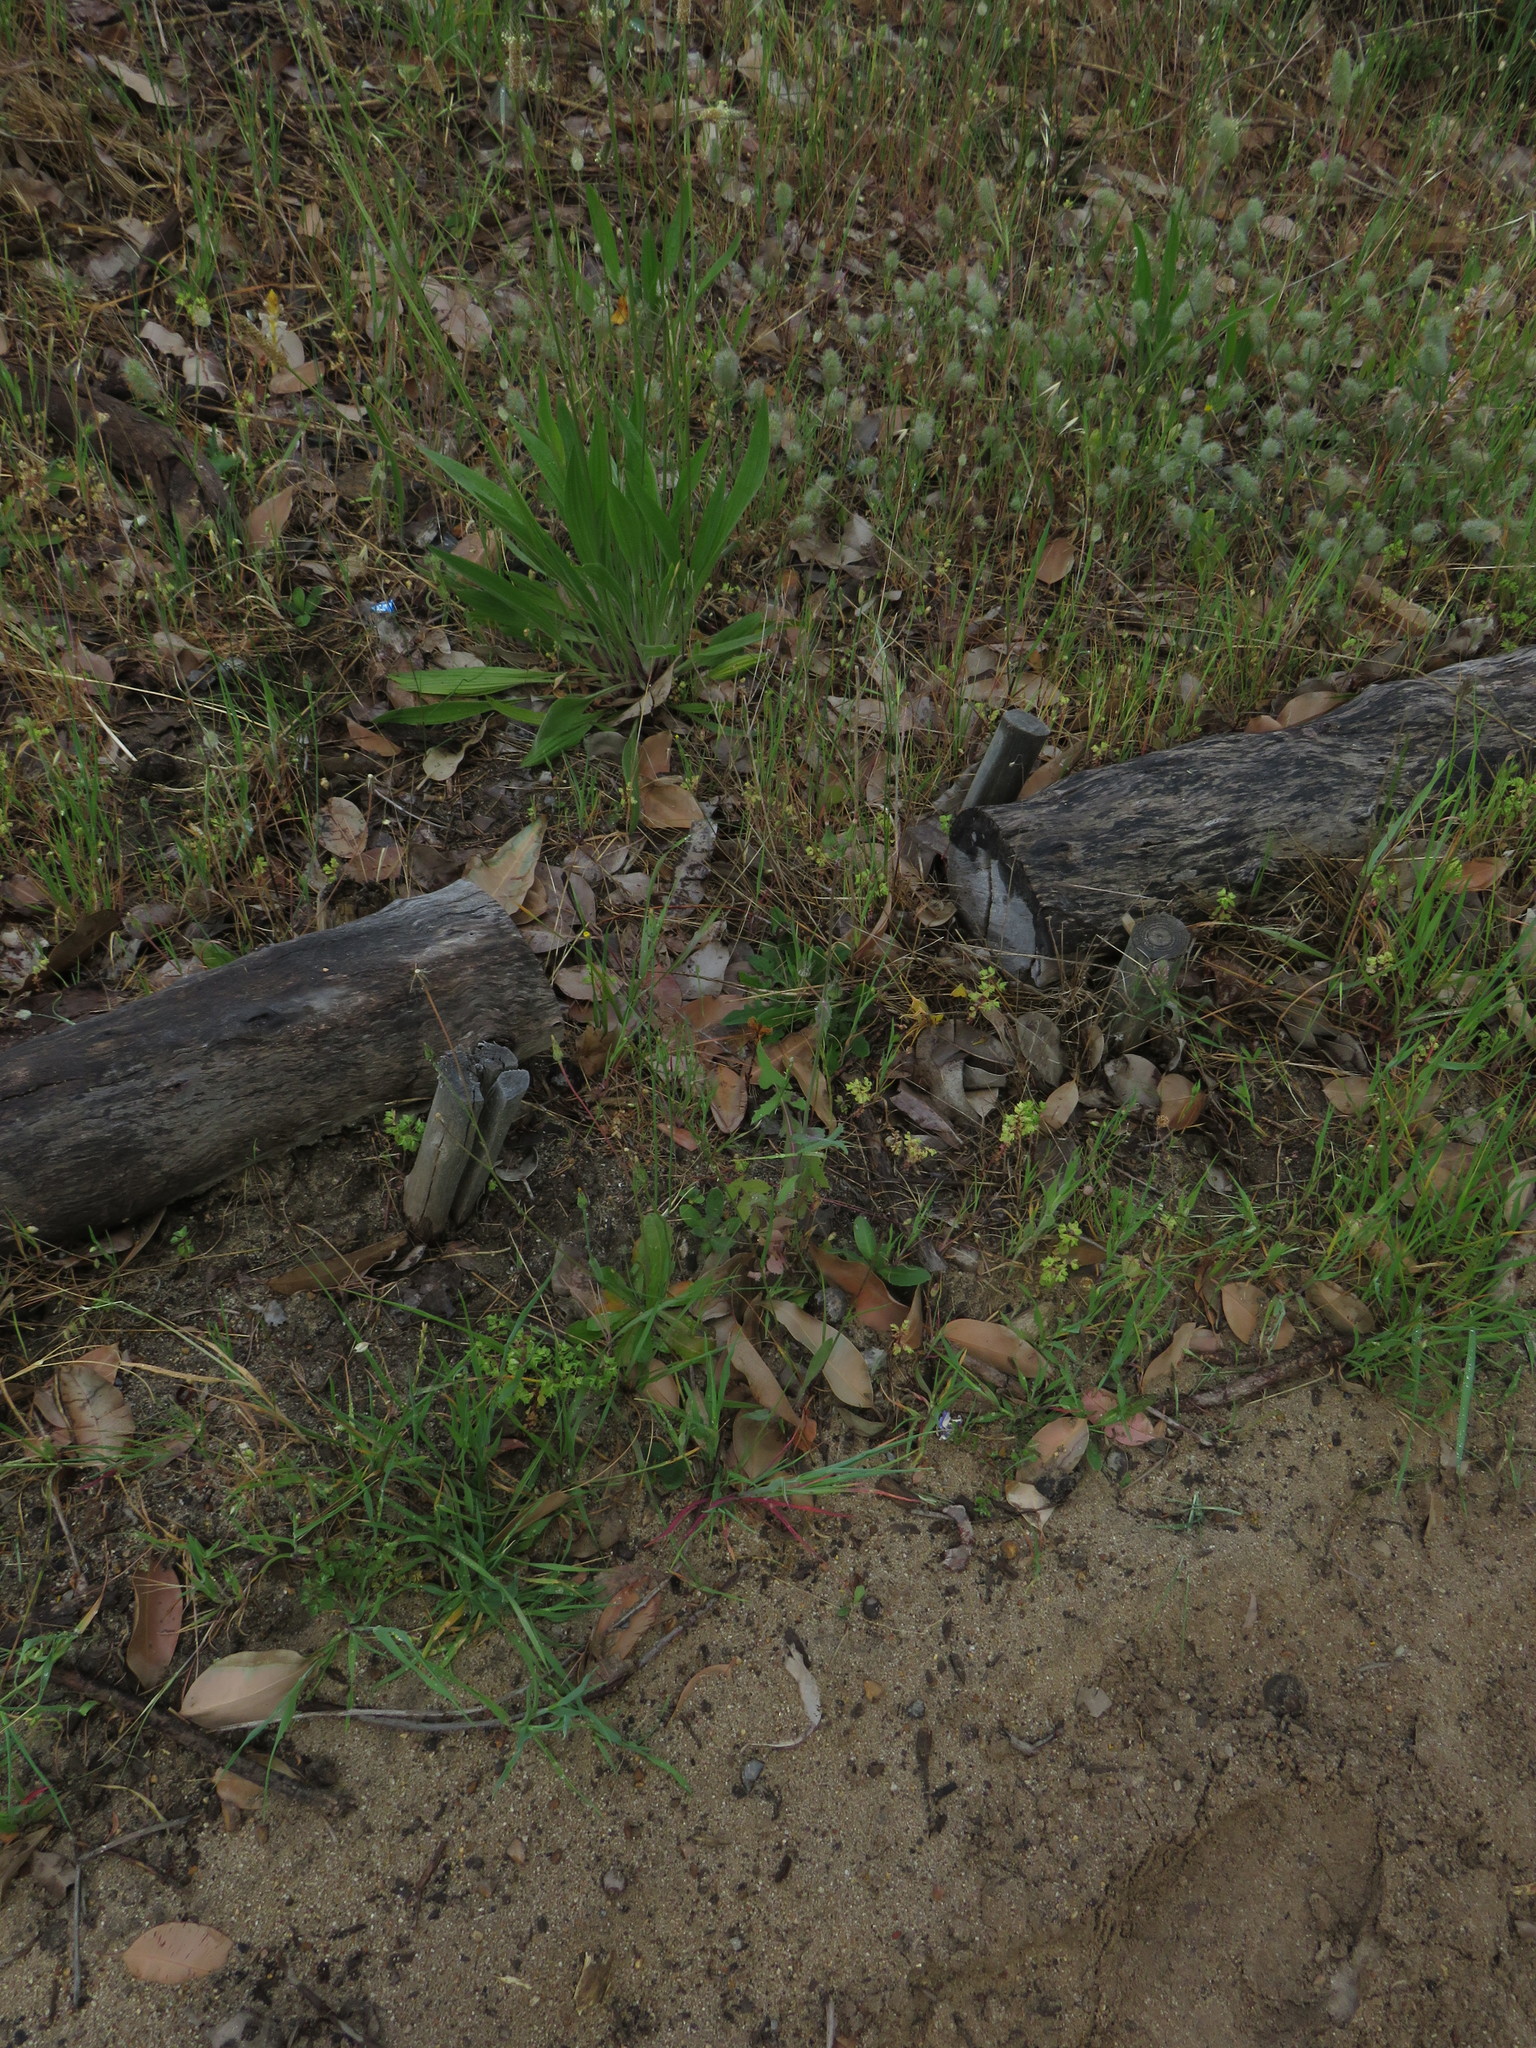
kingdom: Plantae
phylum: Tracheophyta
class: Magnoliopsida
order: Malpighiales
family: Euphorbiaceae
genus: Euphorbia
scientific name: Euphorbia peplus
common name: Petty spurge
